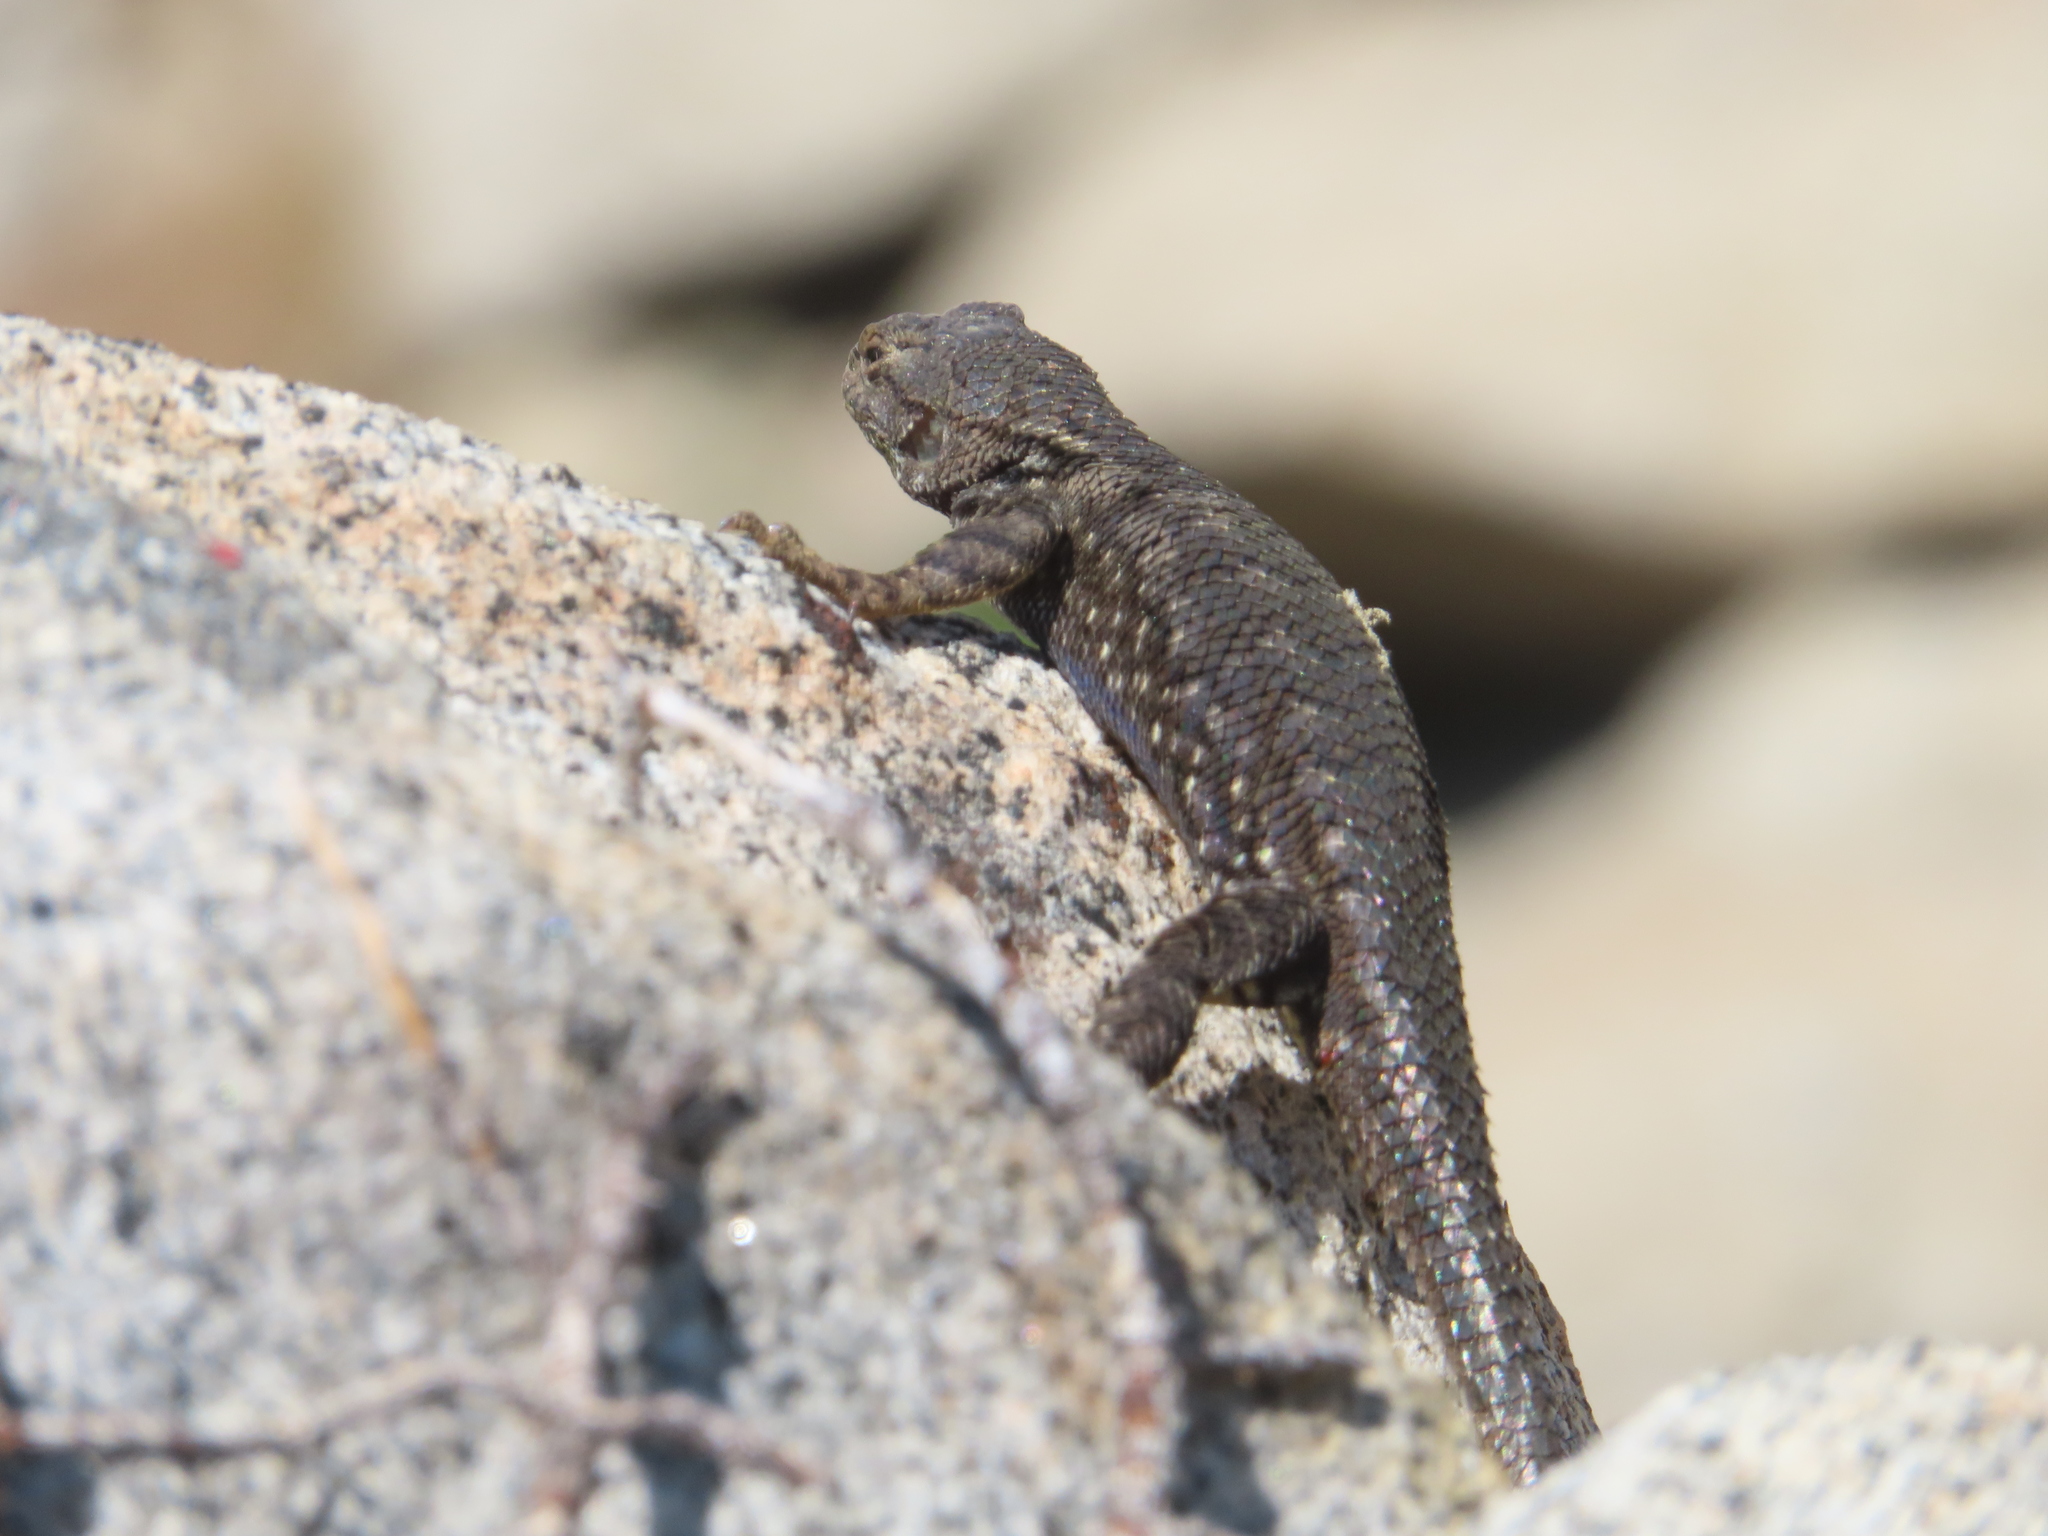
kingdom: Animalia
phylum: Chordata
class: Squamata
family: Phrynosomatidae
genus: Sceloporus
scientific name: Sceloporus occidentalis
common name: Western fence lizard
